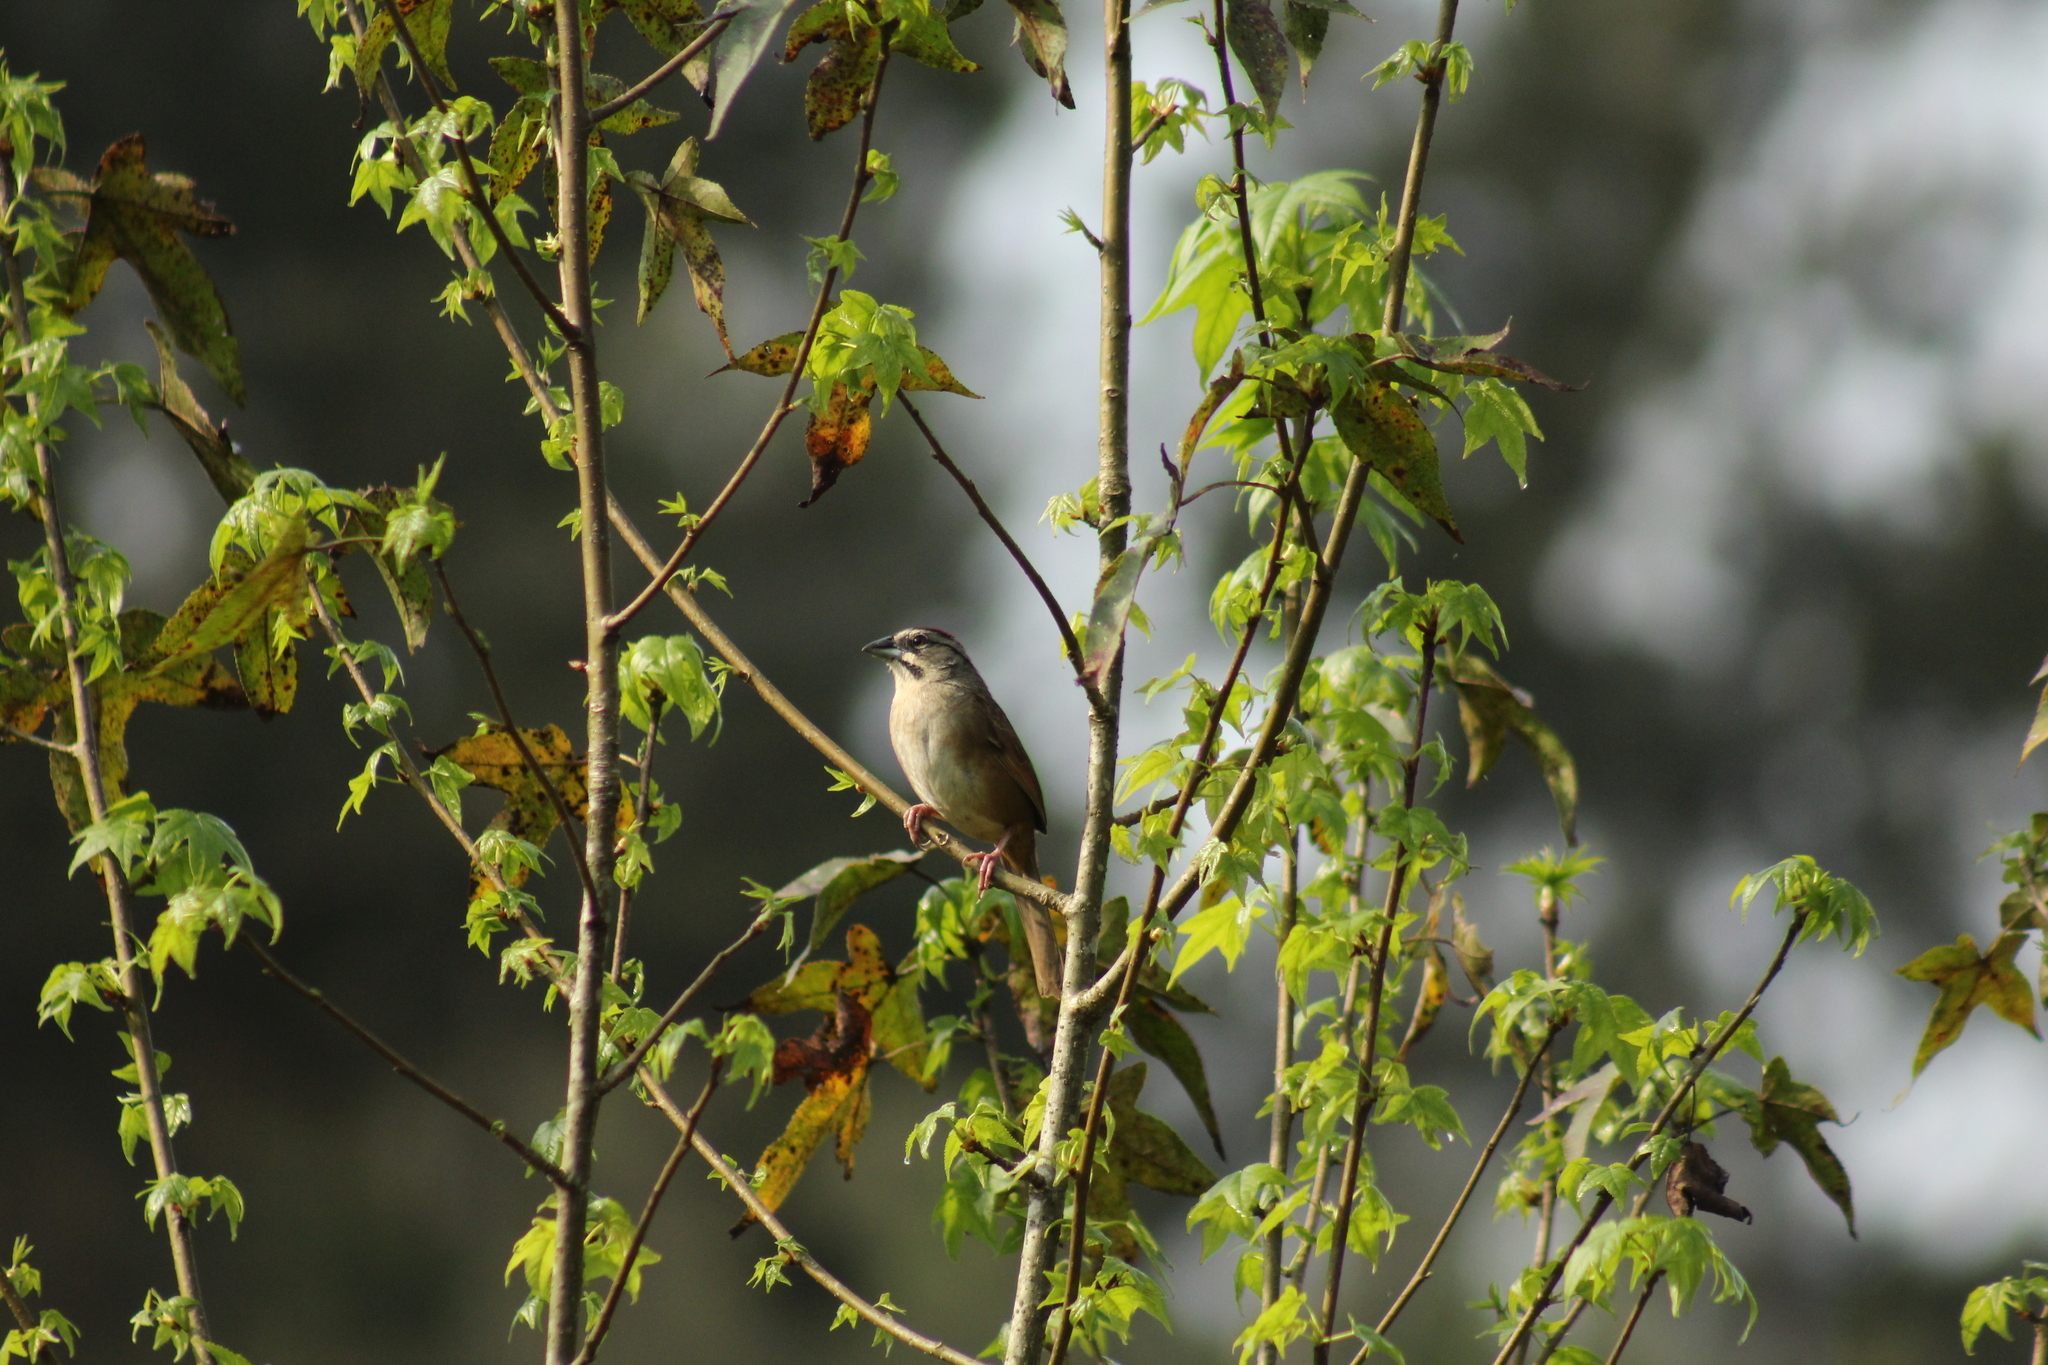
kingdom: Animalia
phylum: Chordata
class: Aves
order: Passeriformes
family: Passerellidae
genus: Aimophila
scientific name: Aimophila rufescens
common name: Rusty sparrow
